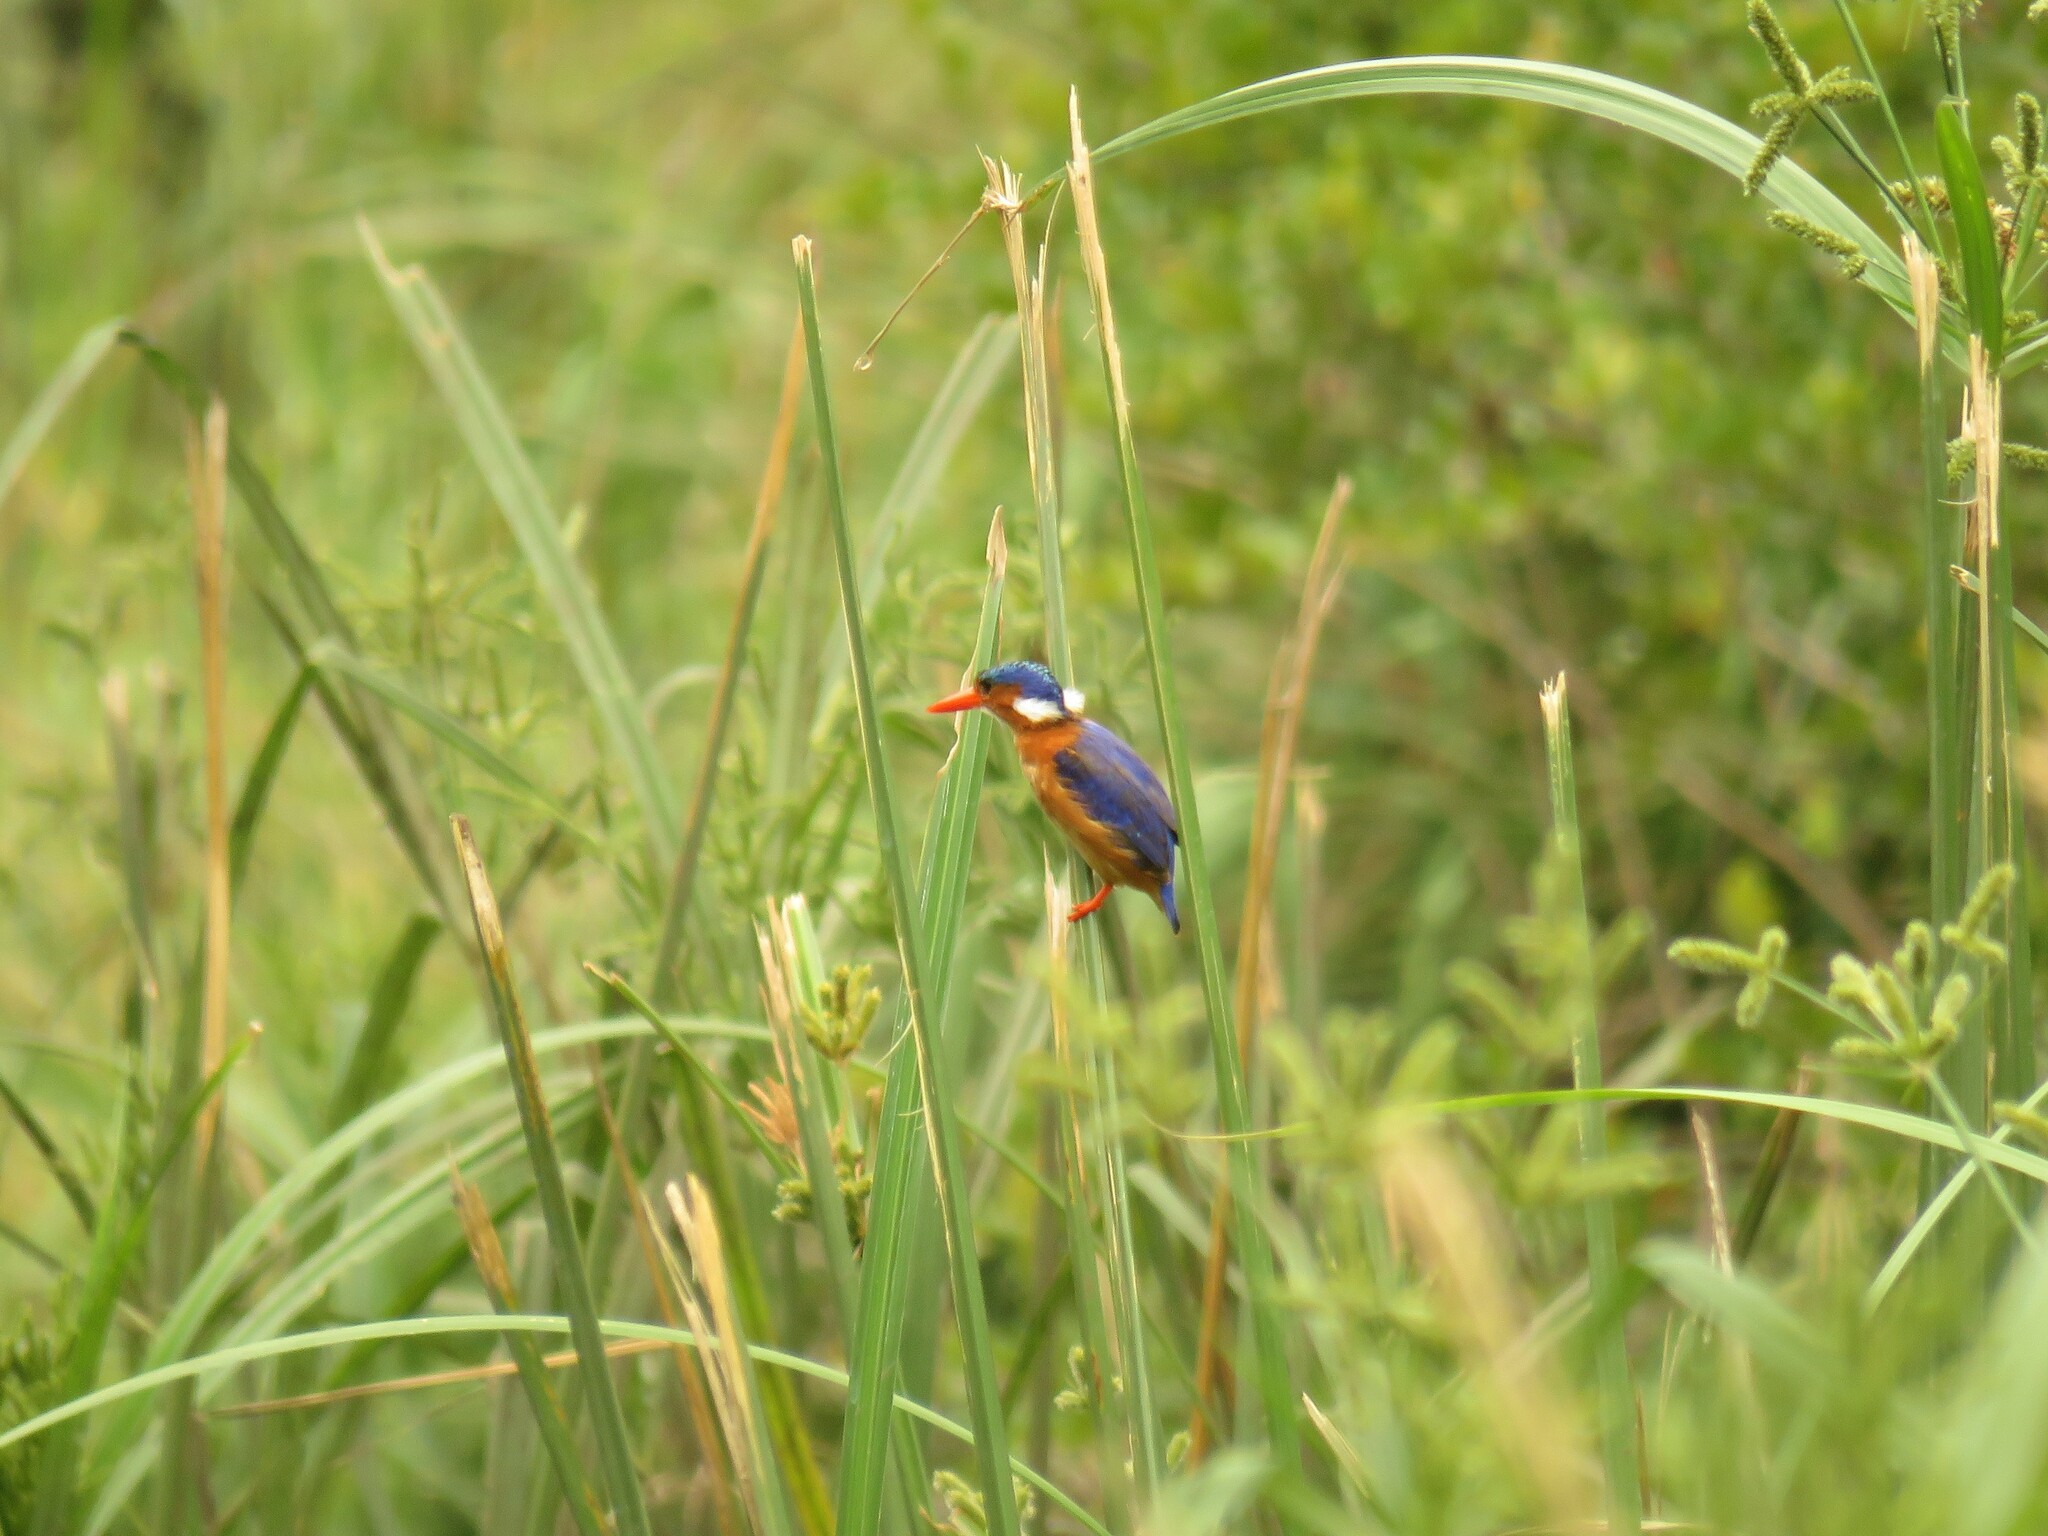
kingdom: Animalia
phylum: Chordata
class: Aves
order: Coraciiformes
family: Alcedinidae
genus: Corythornis
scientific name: Corythornis cristatus
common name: Malachite kingfisher
